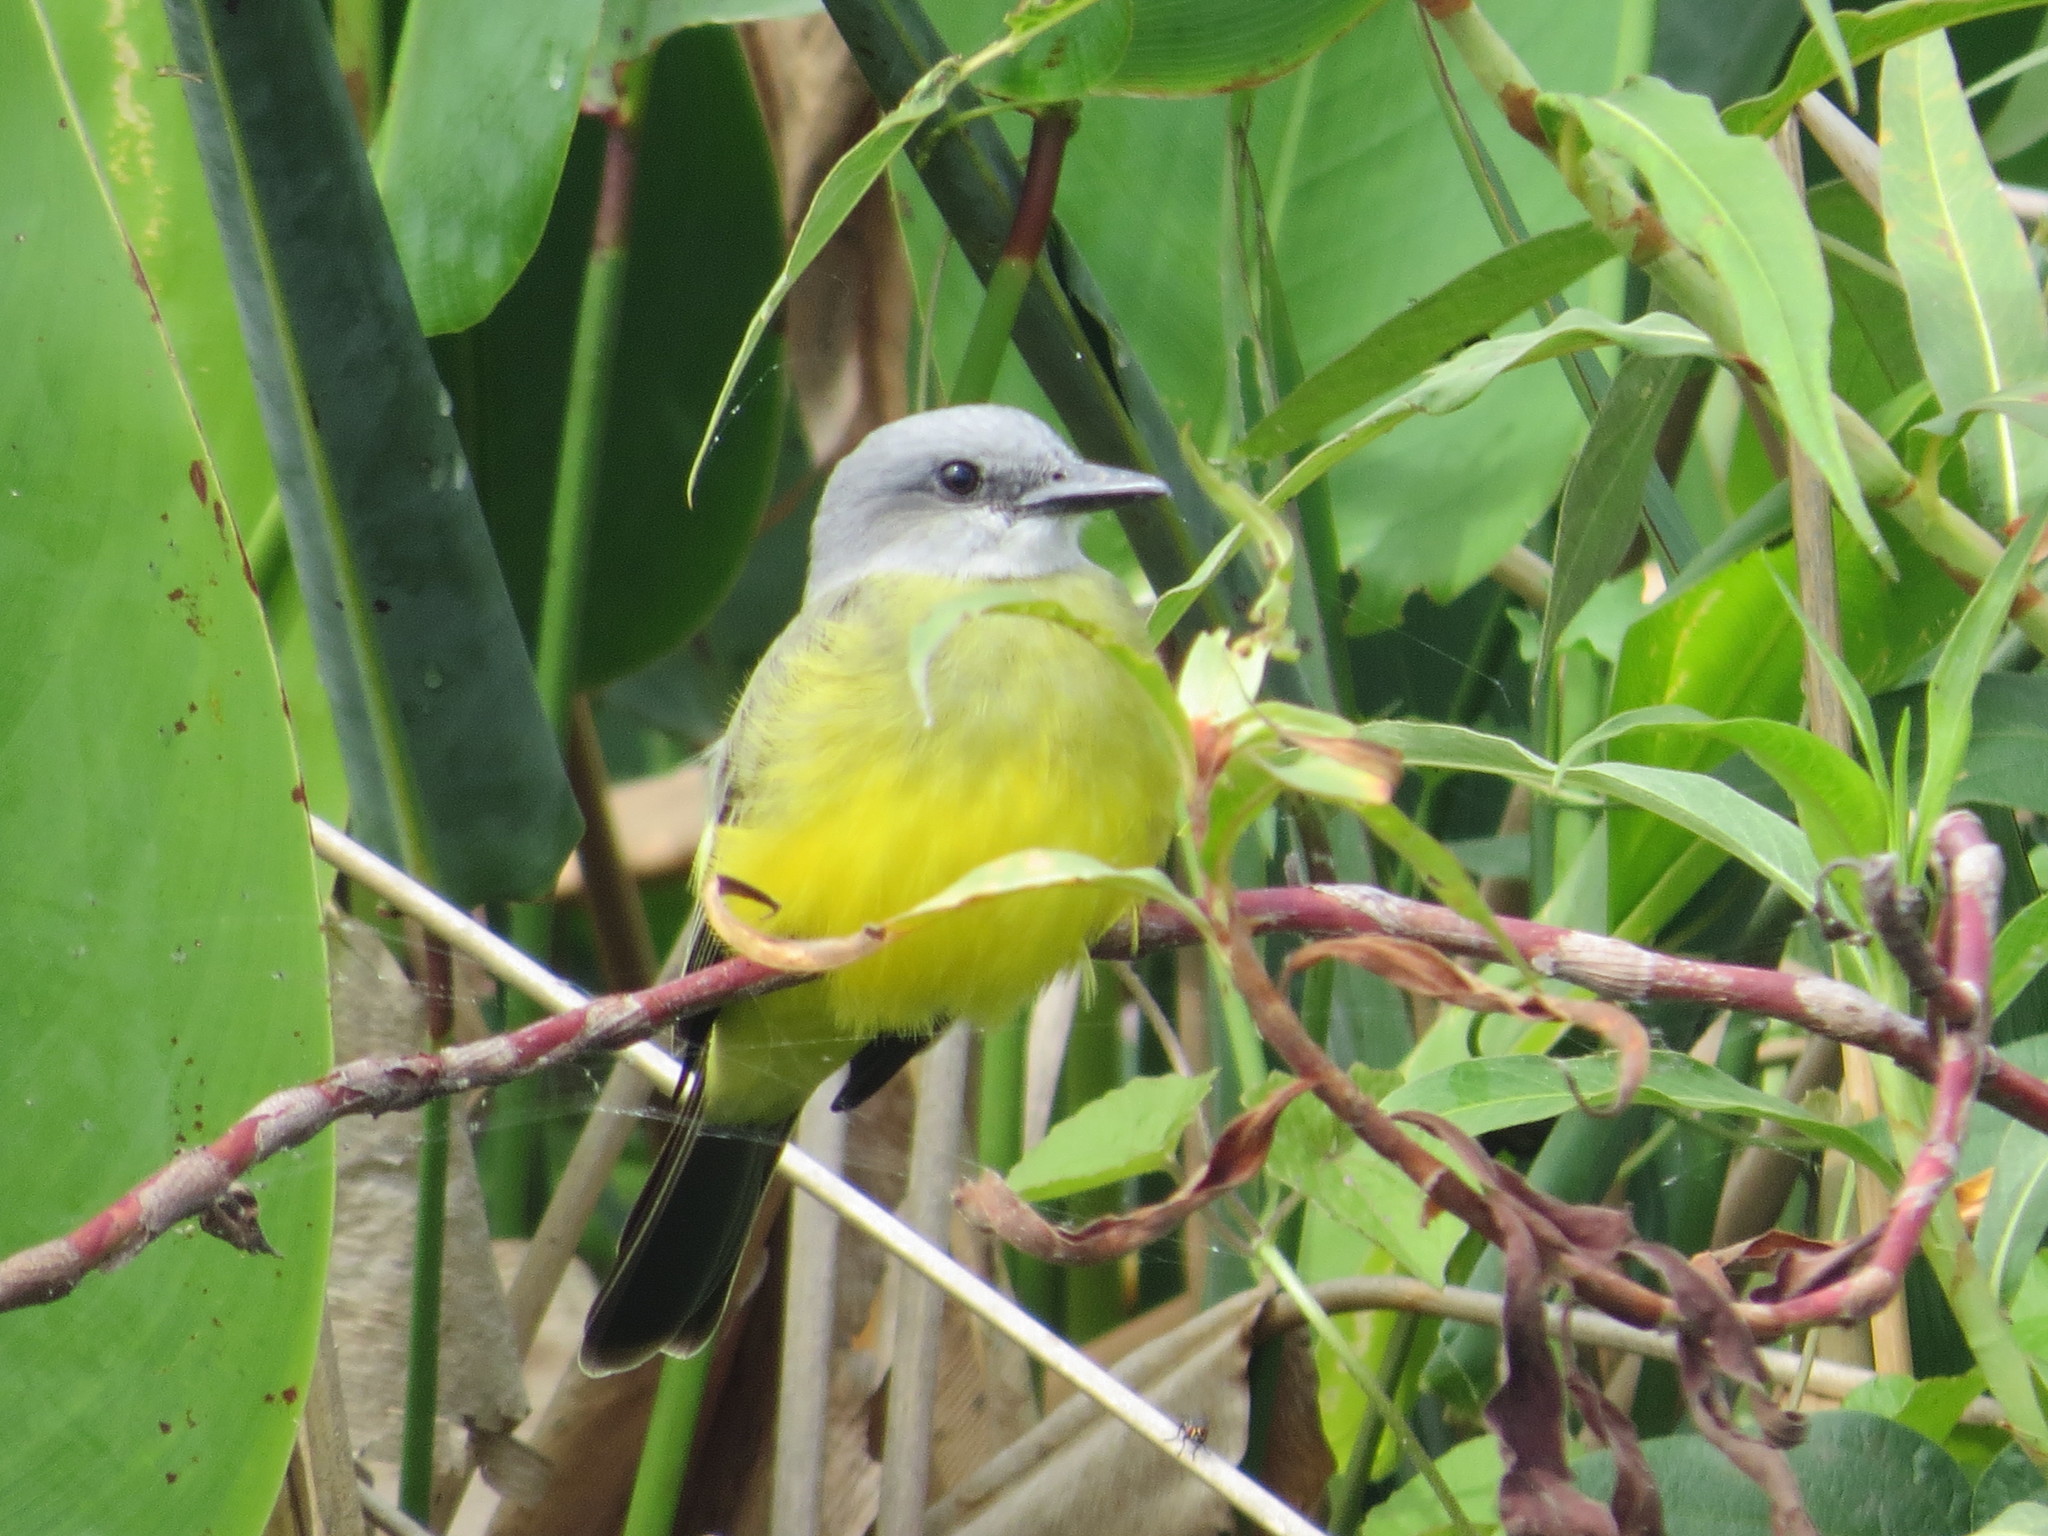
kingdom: Animalia
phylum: Chordata
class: Aves
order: Passeriformes
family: Tyrannidae
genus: Tyrannus
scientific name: Tyrannus melancholicus
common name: Tropical kingbird
